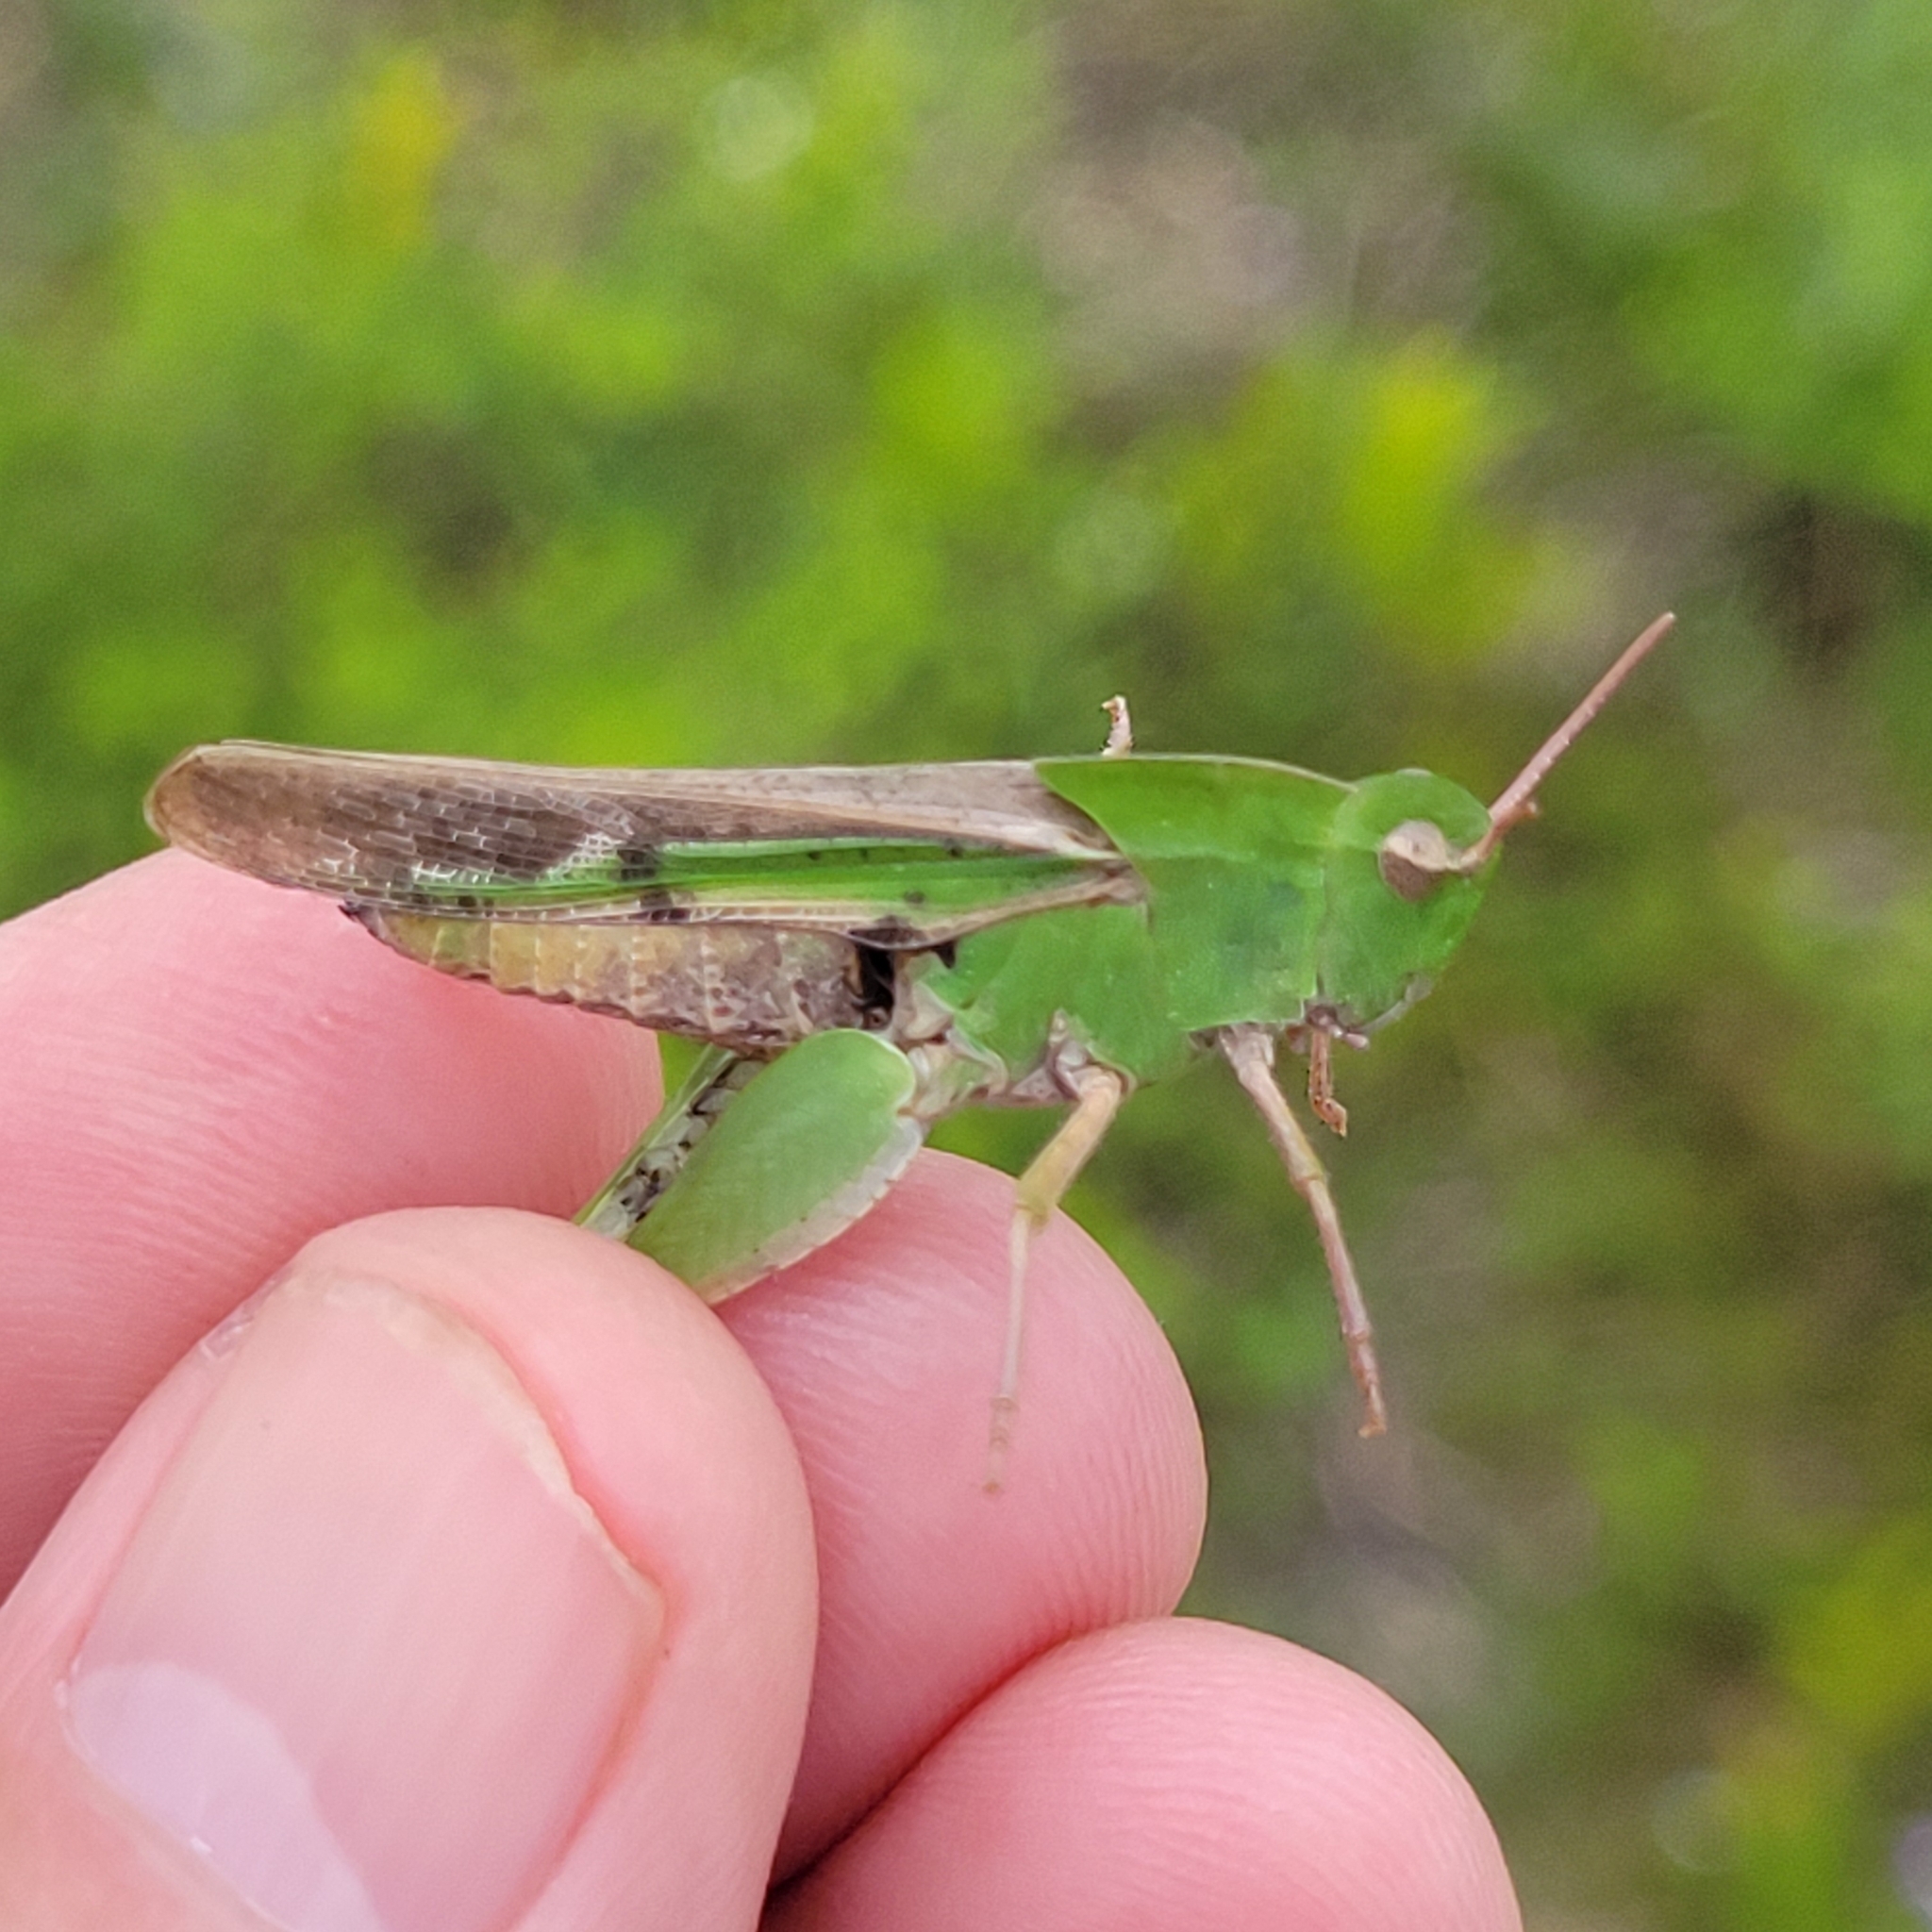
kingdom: Animalia
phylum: Arthropoda
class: Insecta
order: Orthoptera
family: Acrididae
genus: Chortophaga
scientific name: Chortophaga viridifasciata
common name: Green-striped grasshopper
